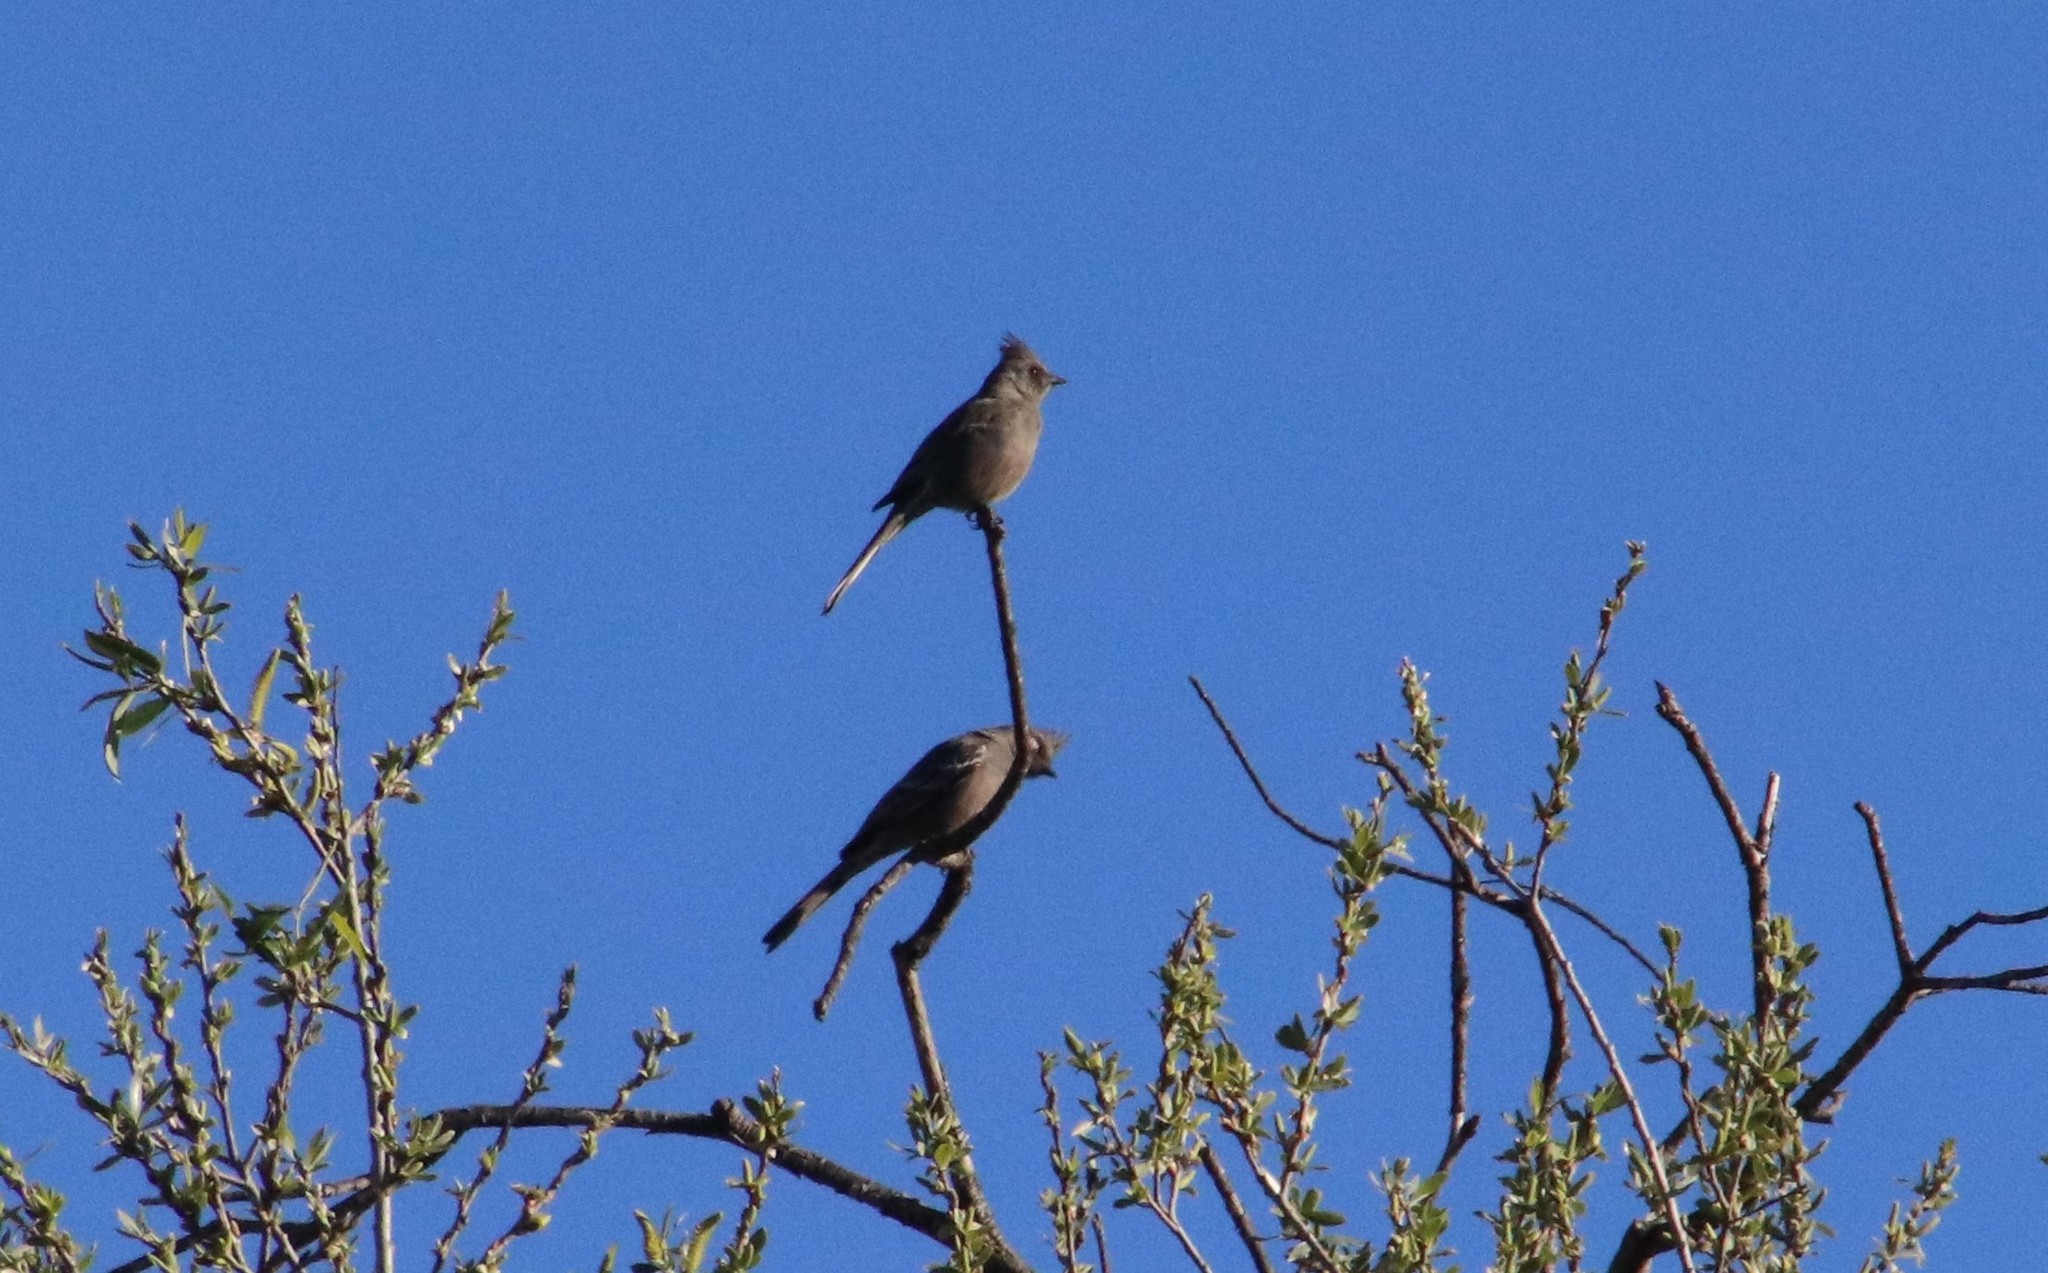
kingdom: Animalia
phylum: Chordata
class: Aves
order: Passeriformes
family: Ptilogonatidae
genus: Phainopepla
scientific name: Phainopepla nitens
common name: Phainopepla
